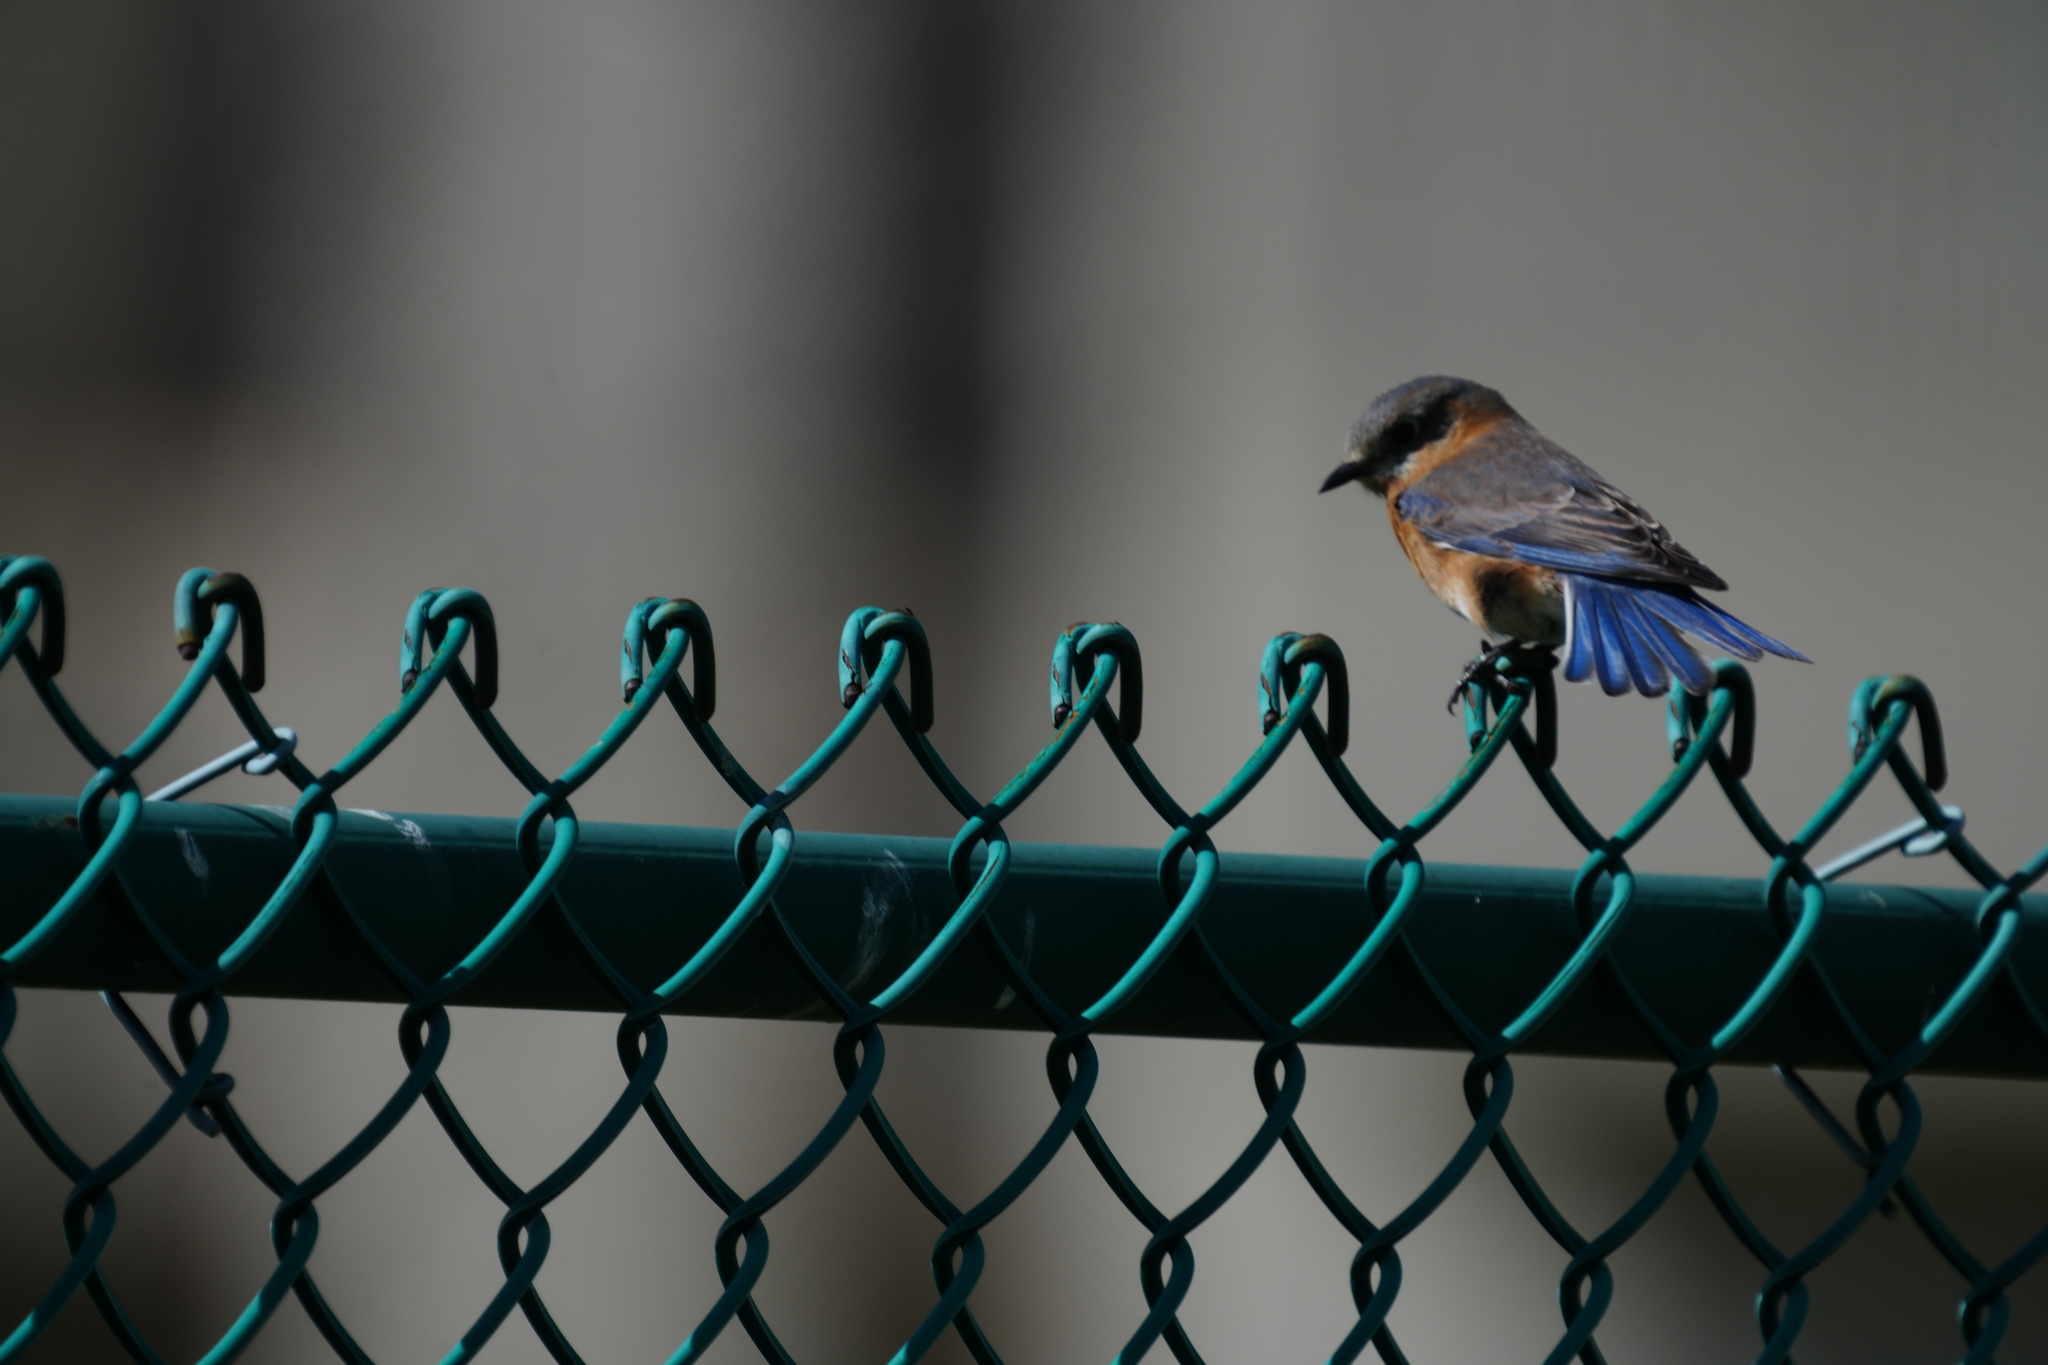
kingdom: Animalia
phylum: Chordata
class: Aves
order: Passeriformes
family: Turdidae
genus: Sialia
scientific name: Sialia sialis
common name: Eastern bluebird
